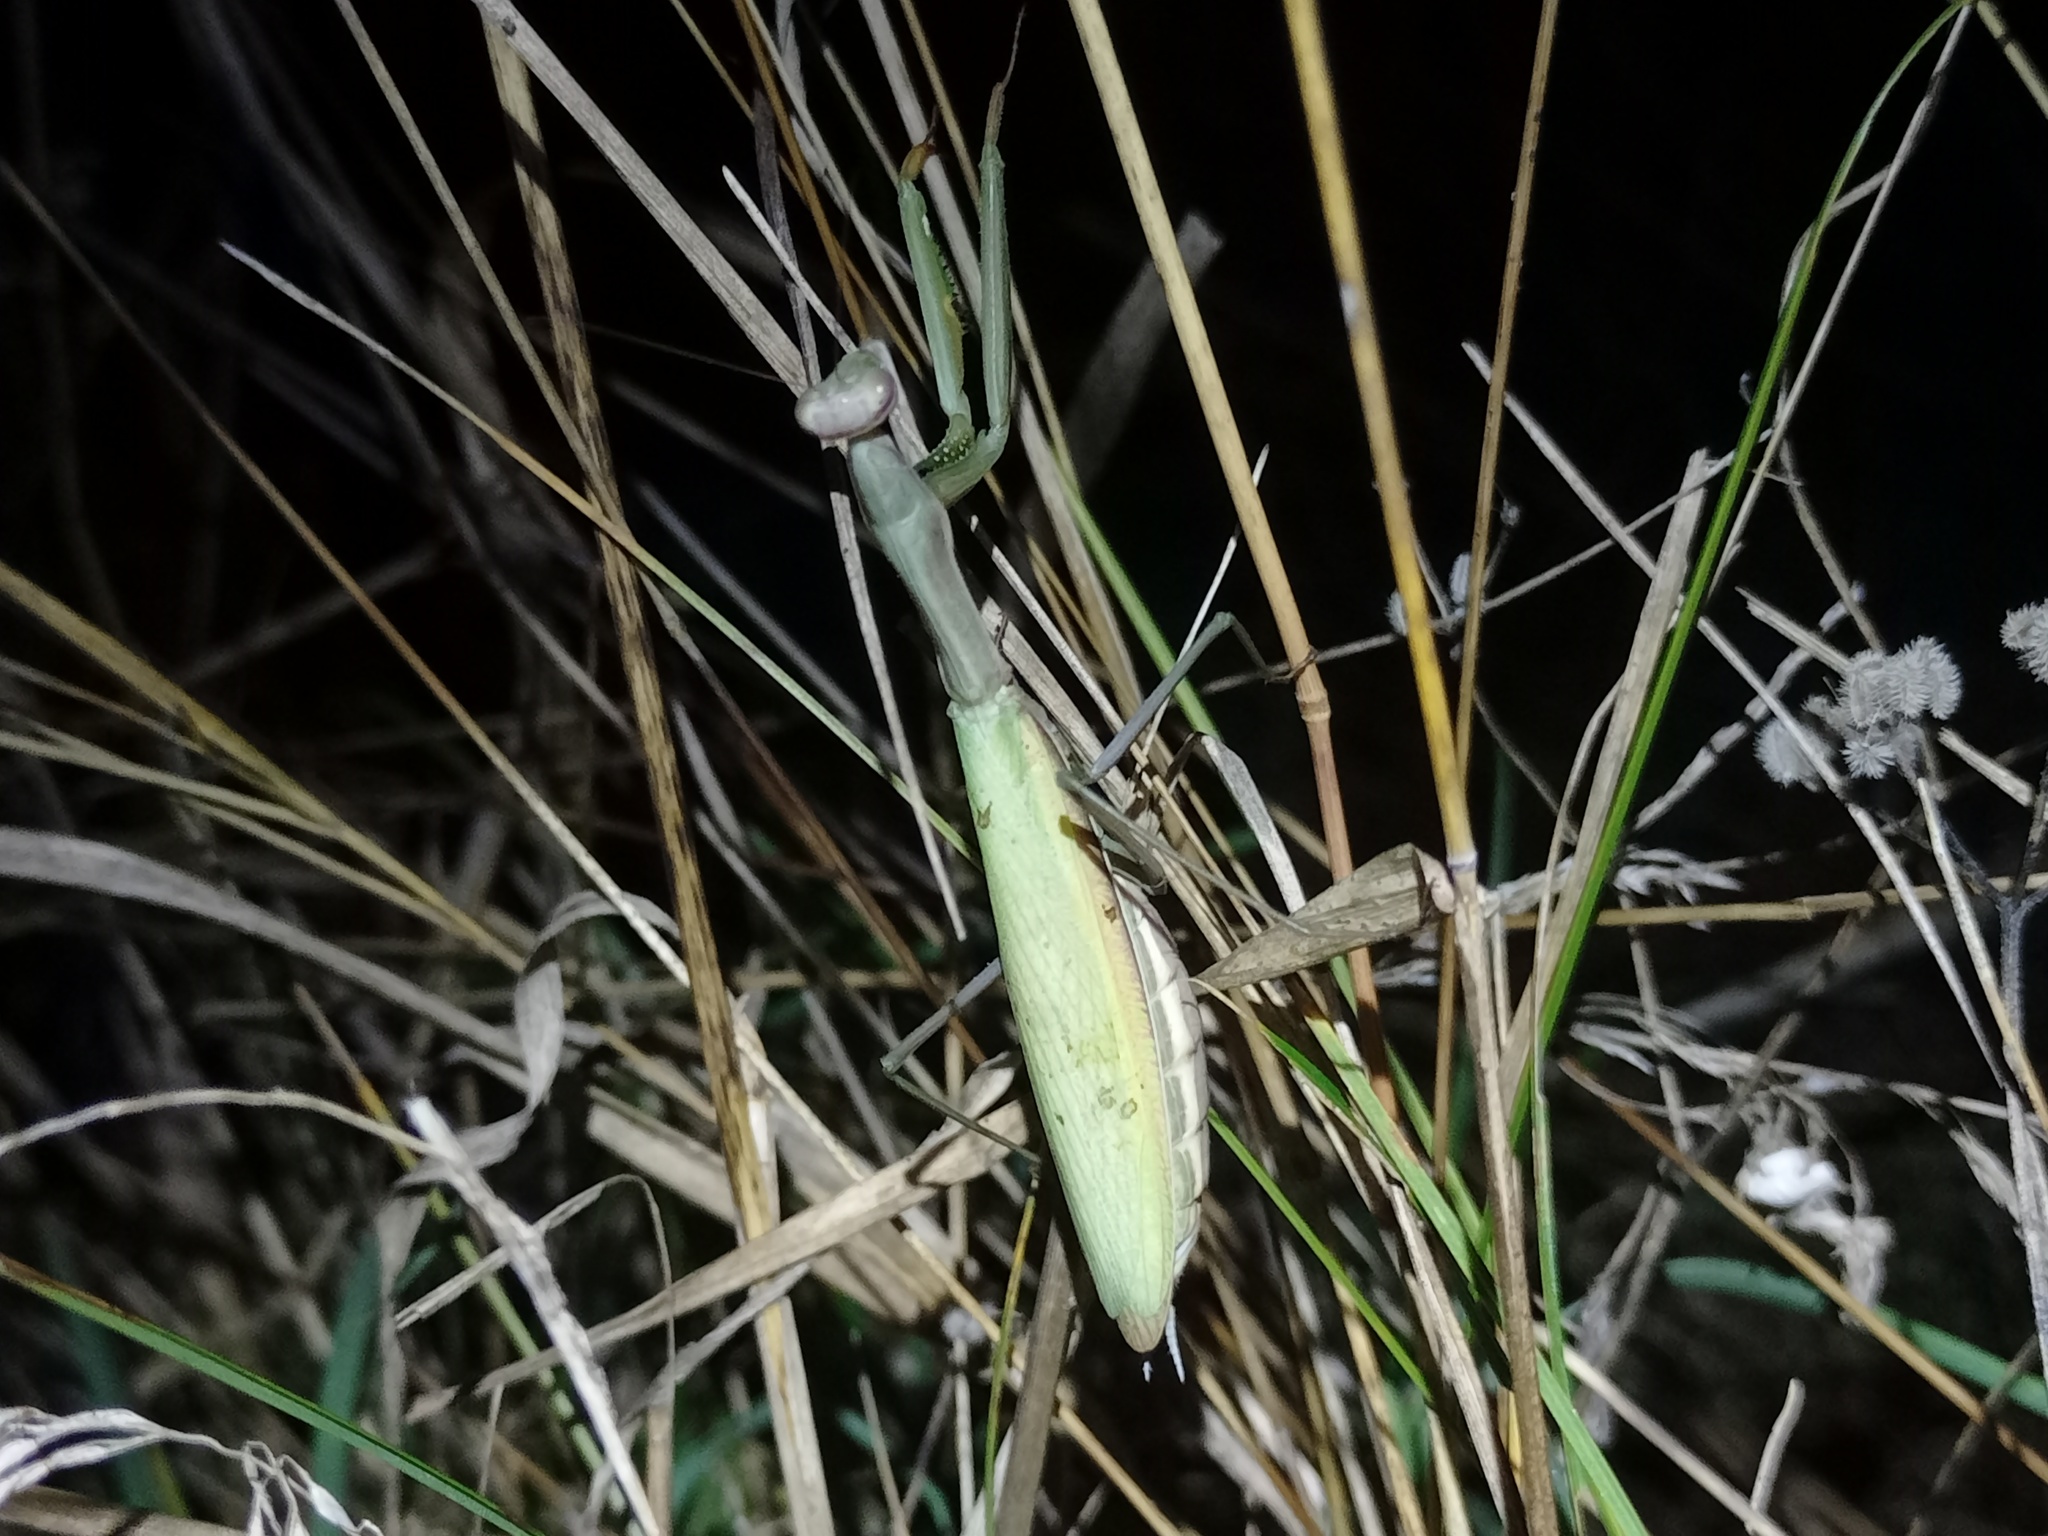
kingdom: Animalia
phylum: Arthropoda
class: Insecta
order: Mantodea
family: Mantidae
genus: Mantis
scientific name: Mantis religiosa
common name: Praying mantis
